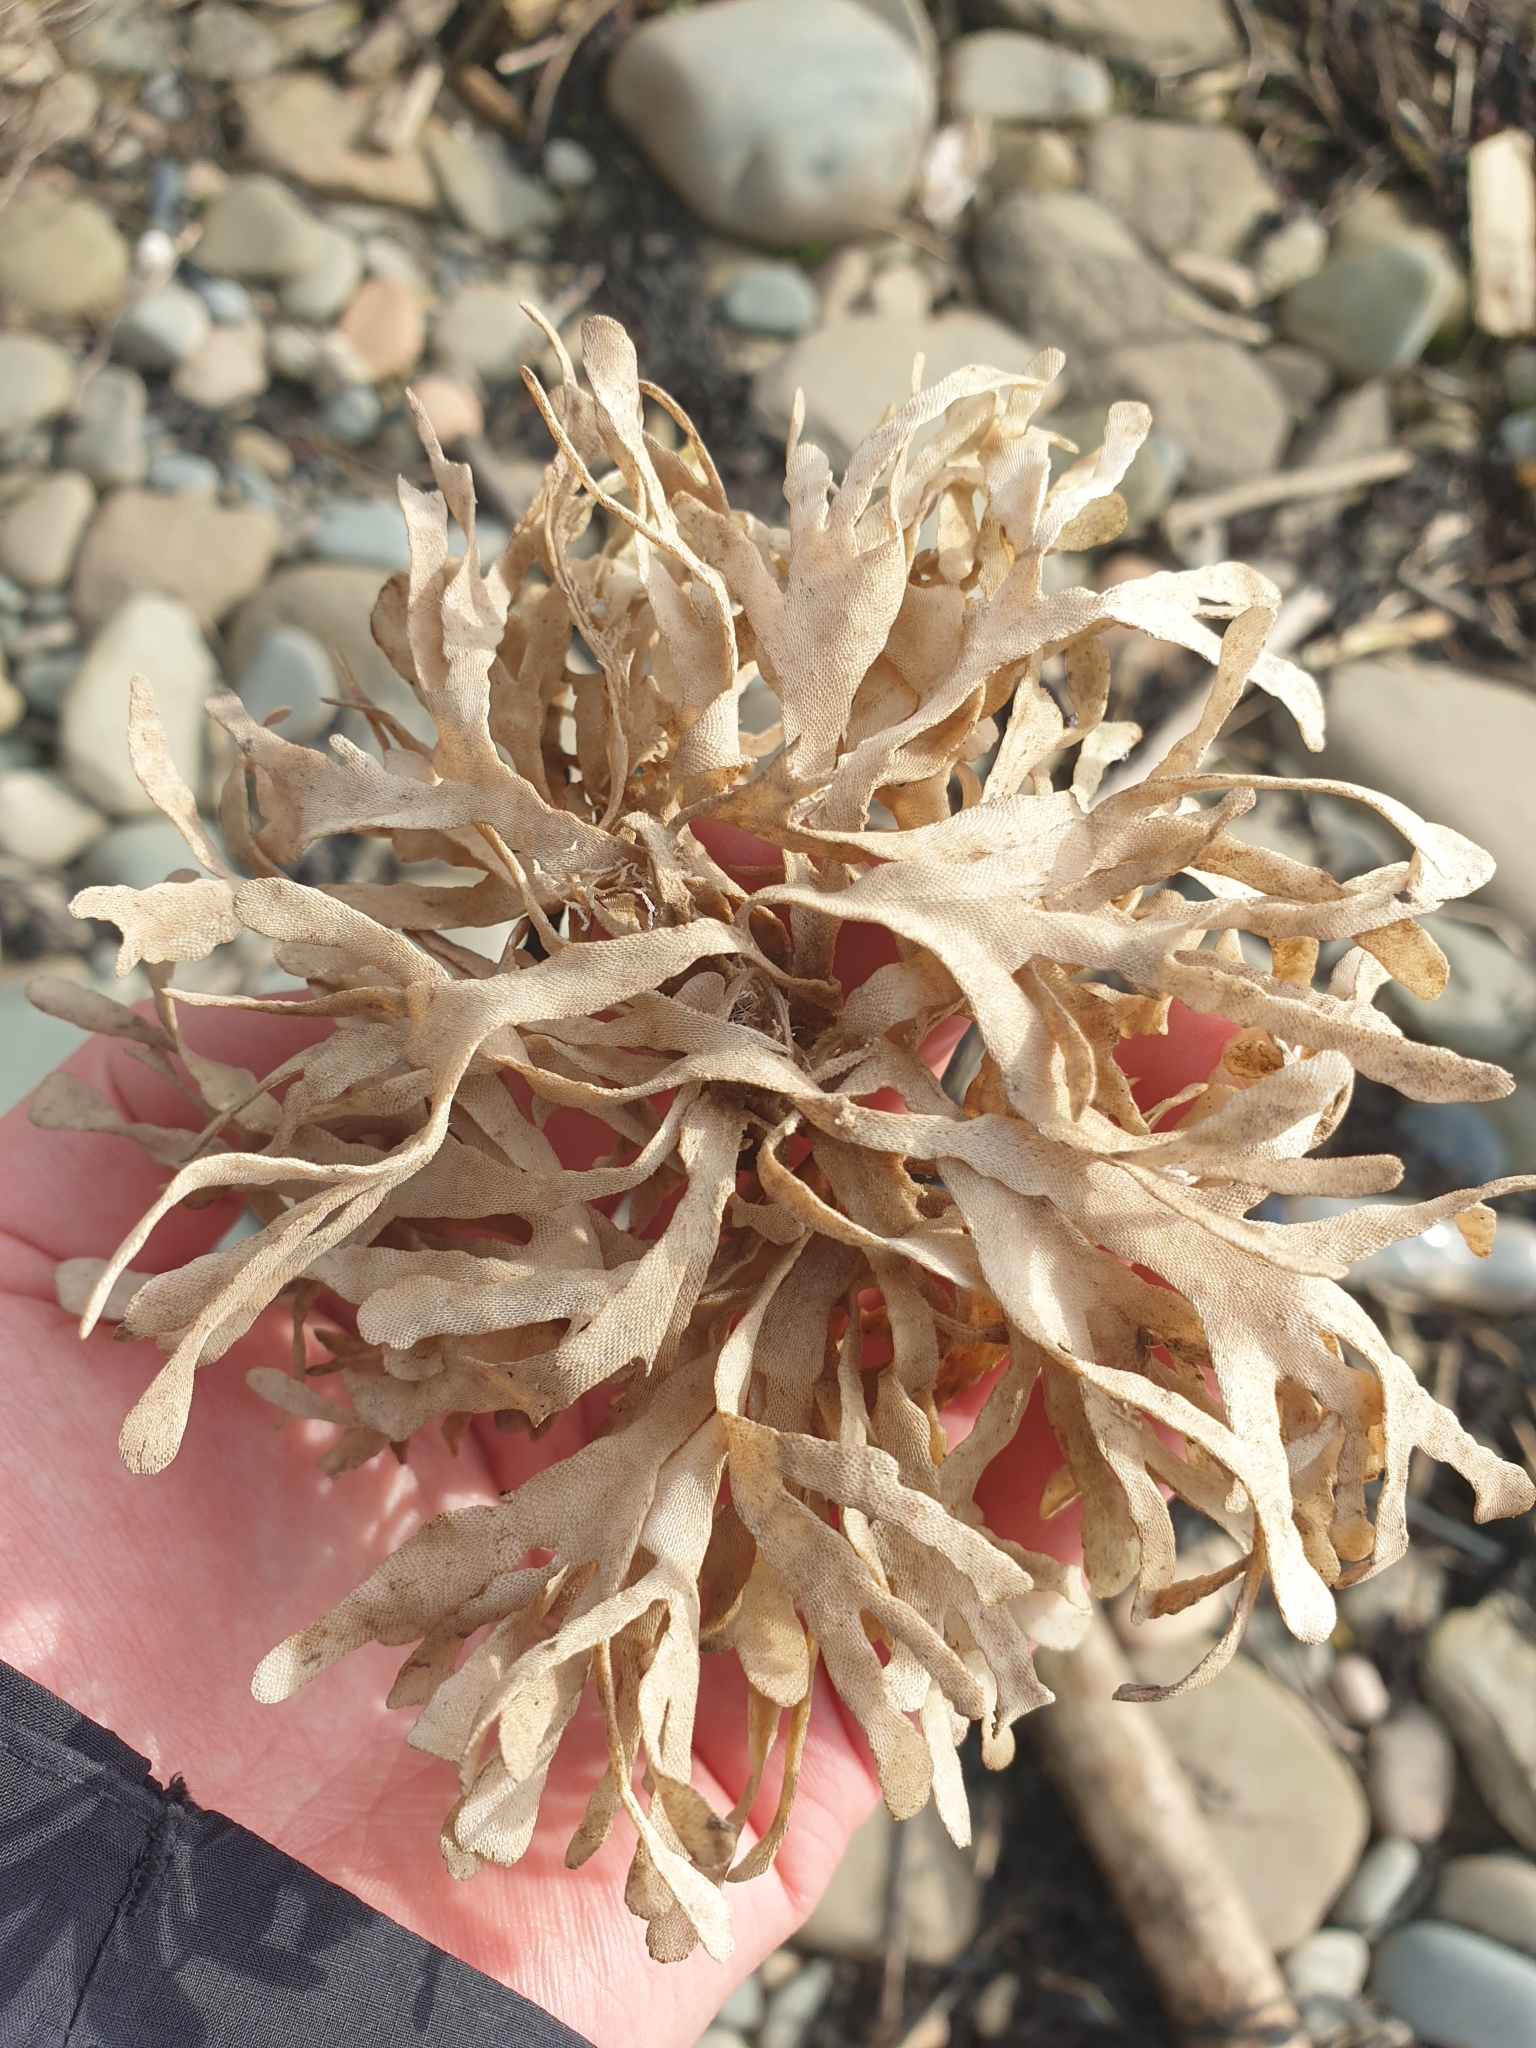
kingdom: Animalia
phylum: Bryozoa
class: Gymnolaemata
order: Cheilostomatida
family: Flustridae
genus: Flustra
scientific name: Flustra foliacea
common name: Hornwrack
